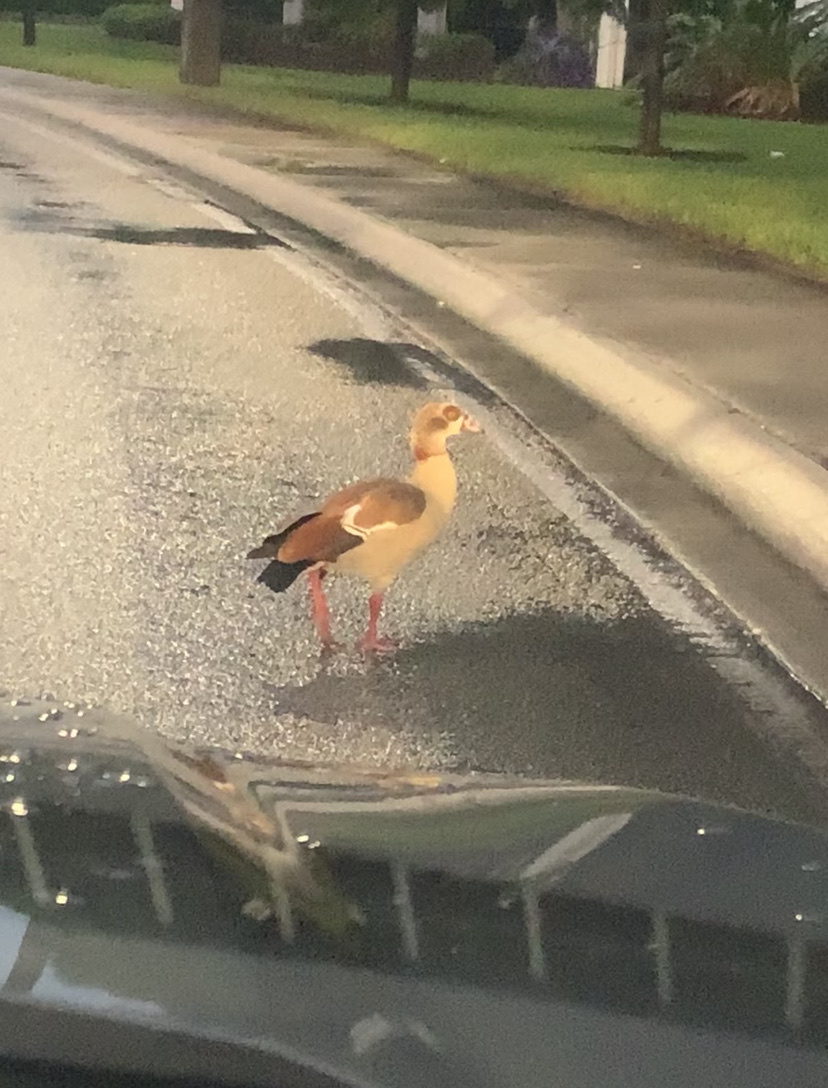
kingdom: Animalia
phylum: Chordata
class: Aves
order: Anseriformes
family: Anatidae
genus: Alopochen
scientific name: Alopochen aegyptiaca
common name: Egyptian goose
